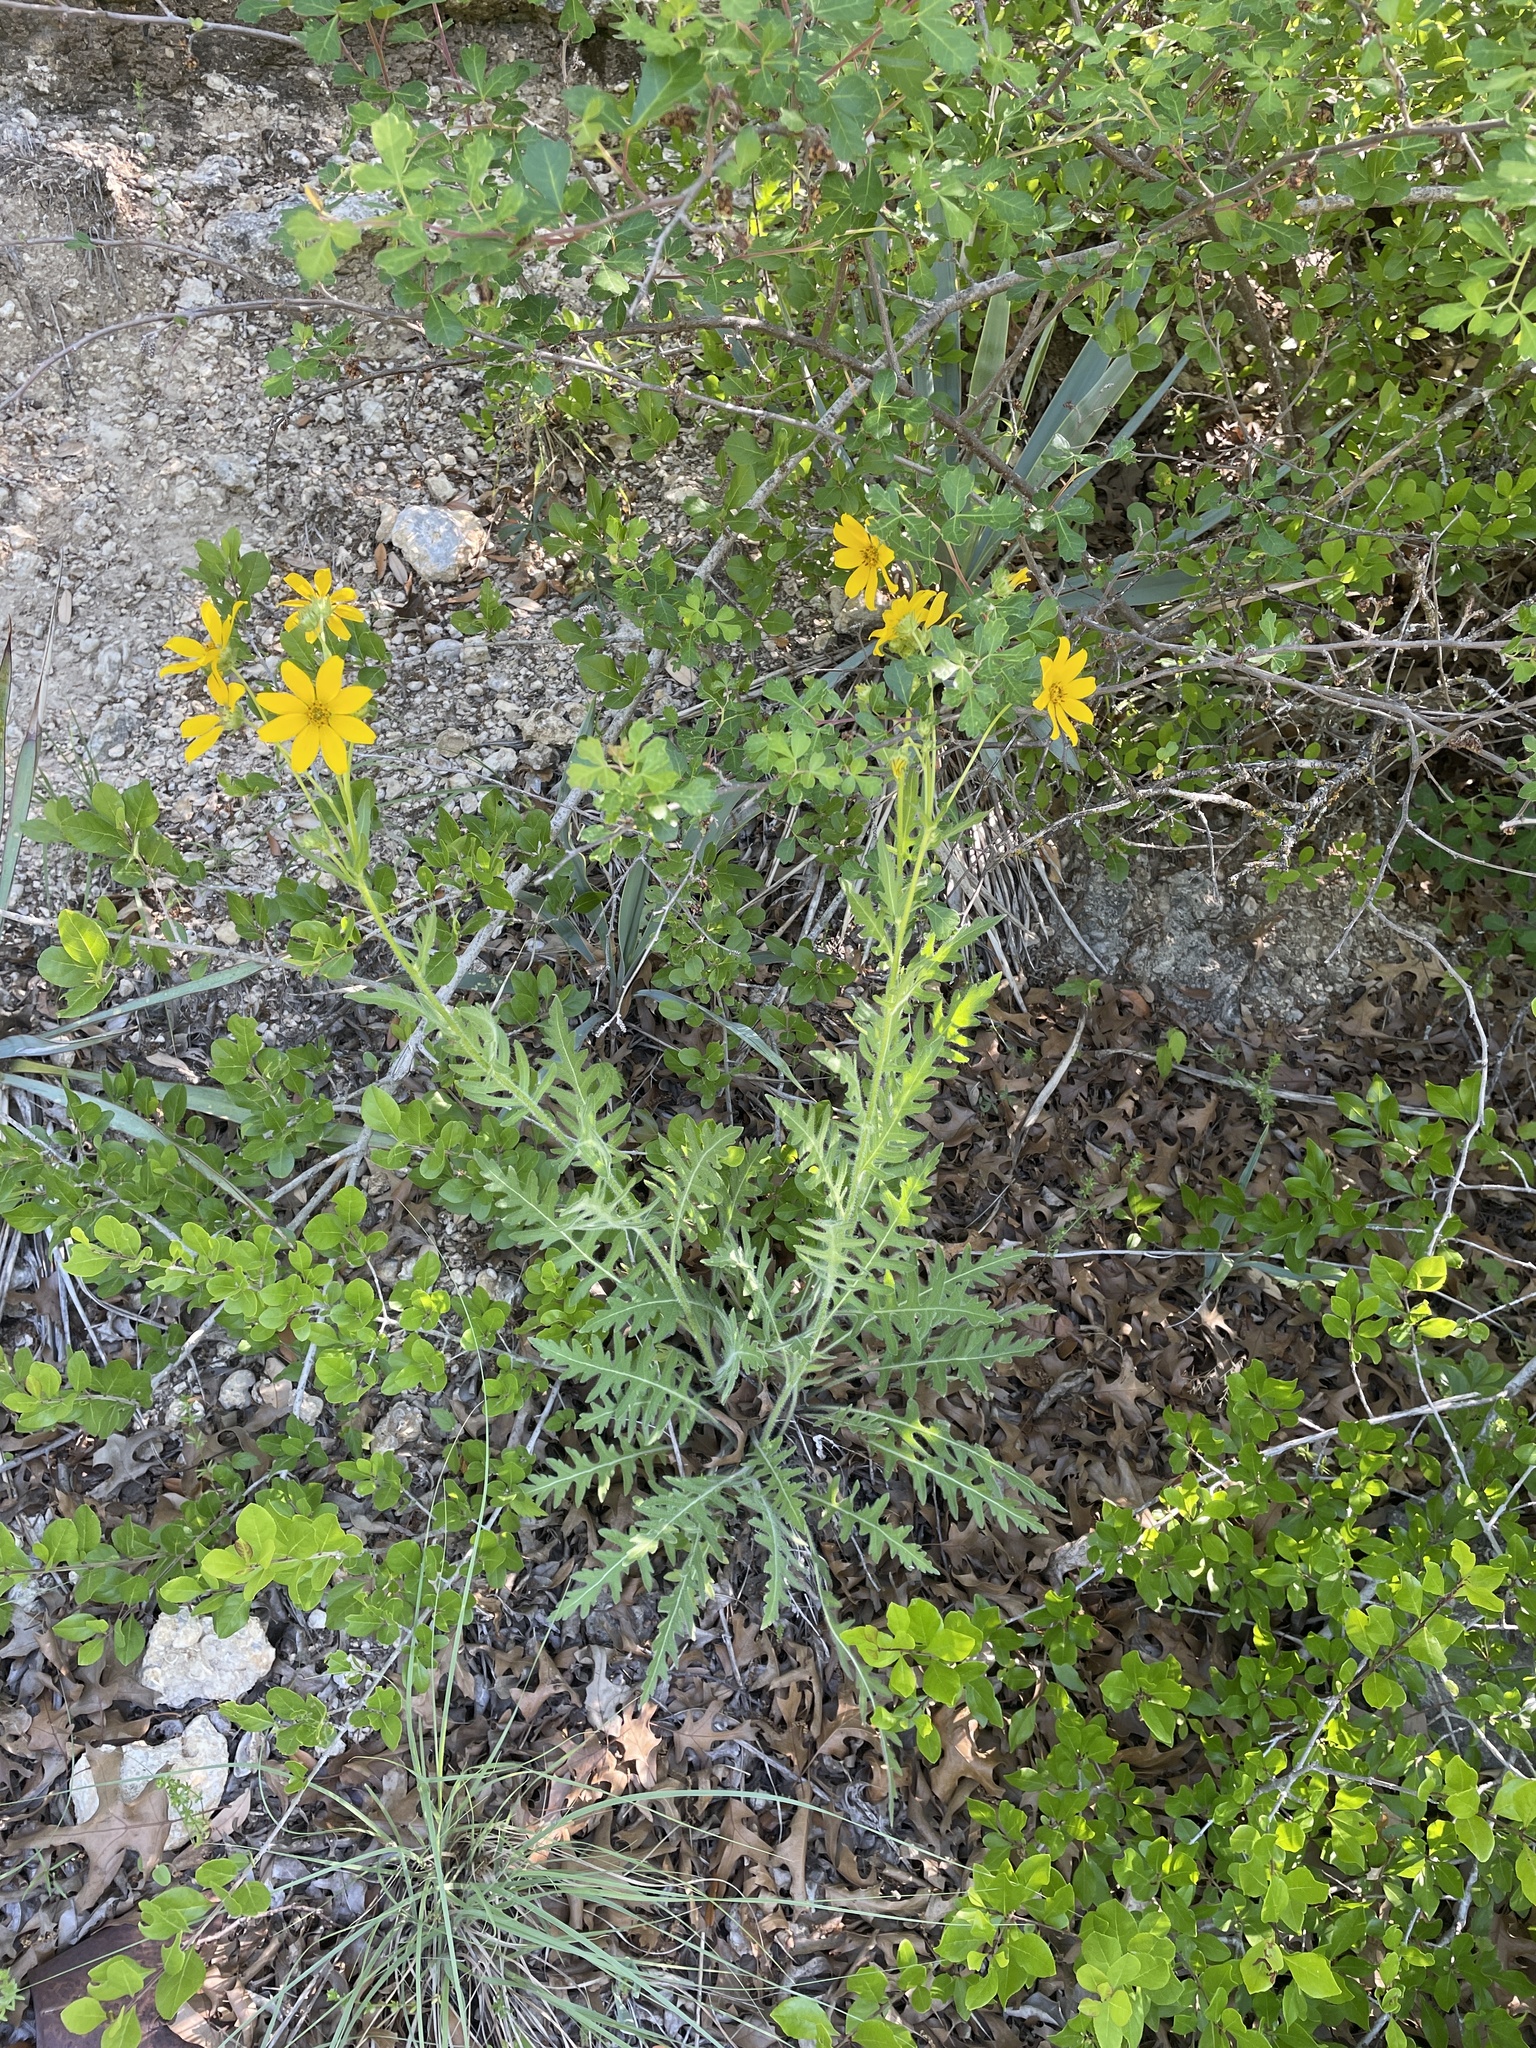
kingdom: Plantae
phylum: Tracheophyta
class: Magnoliopsida
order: Asterales
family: Asteraceae
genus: Engelmannia
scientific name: Engelmannia peristenia
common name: Engelmann's daisy
